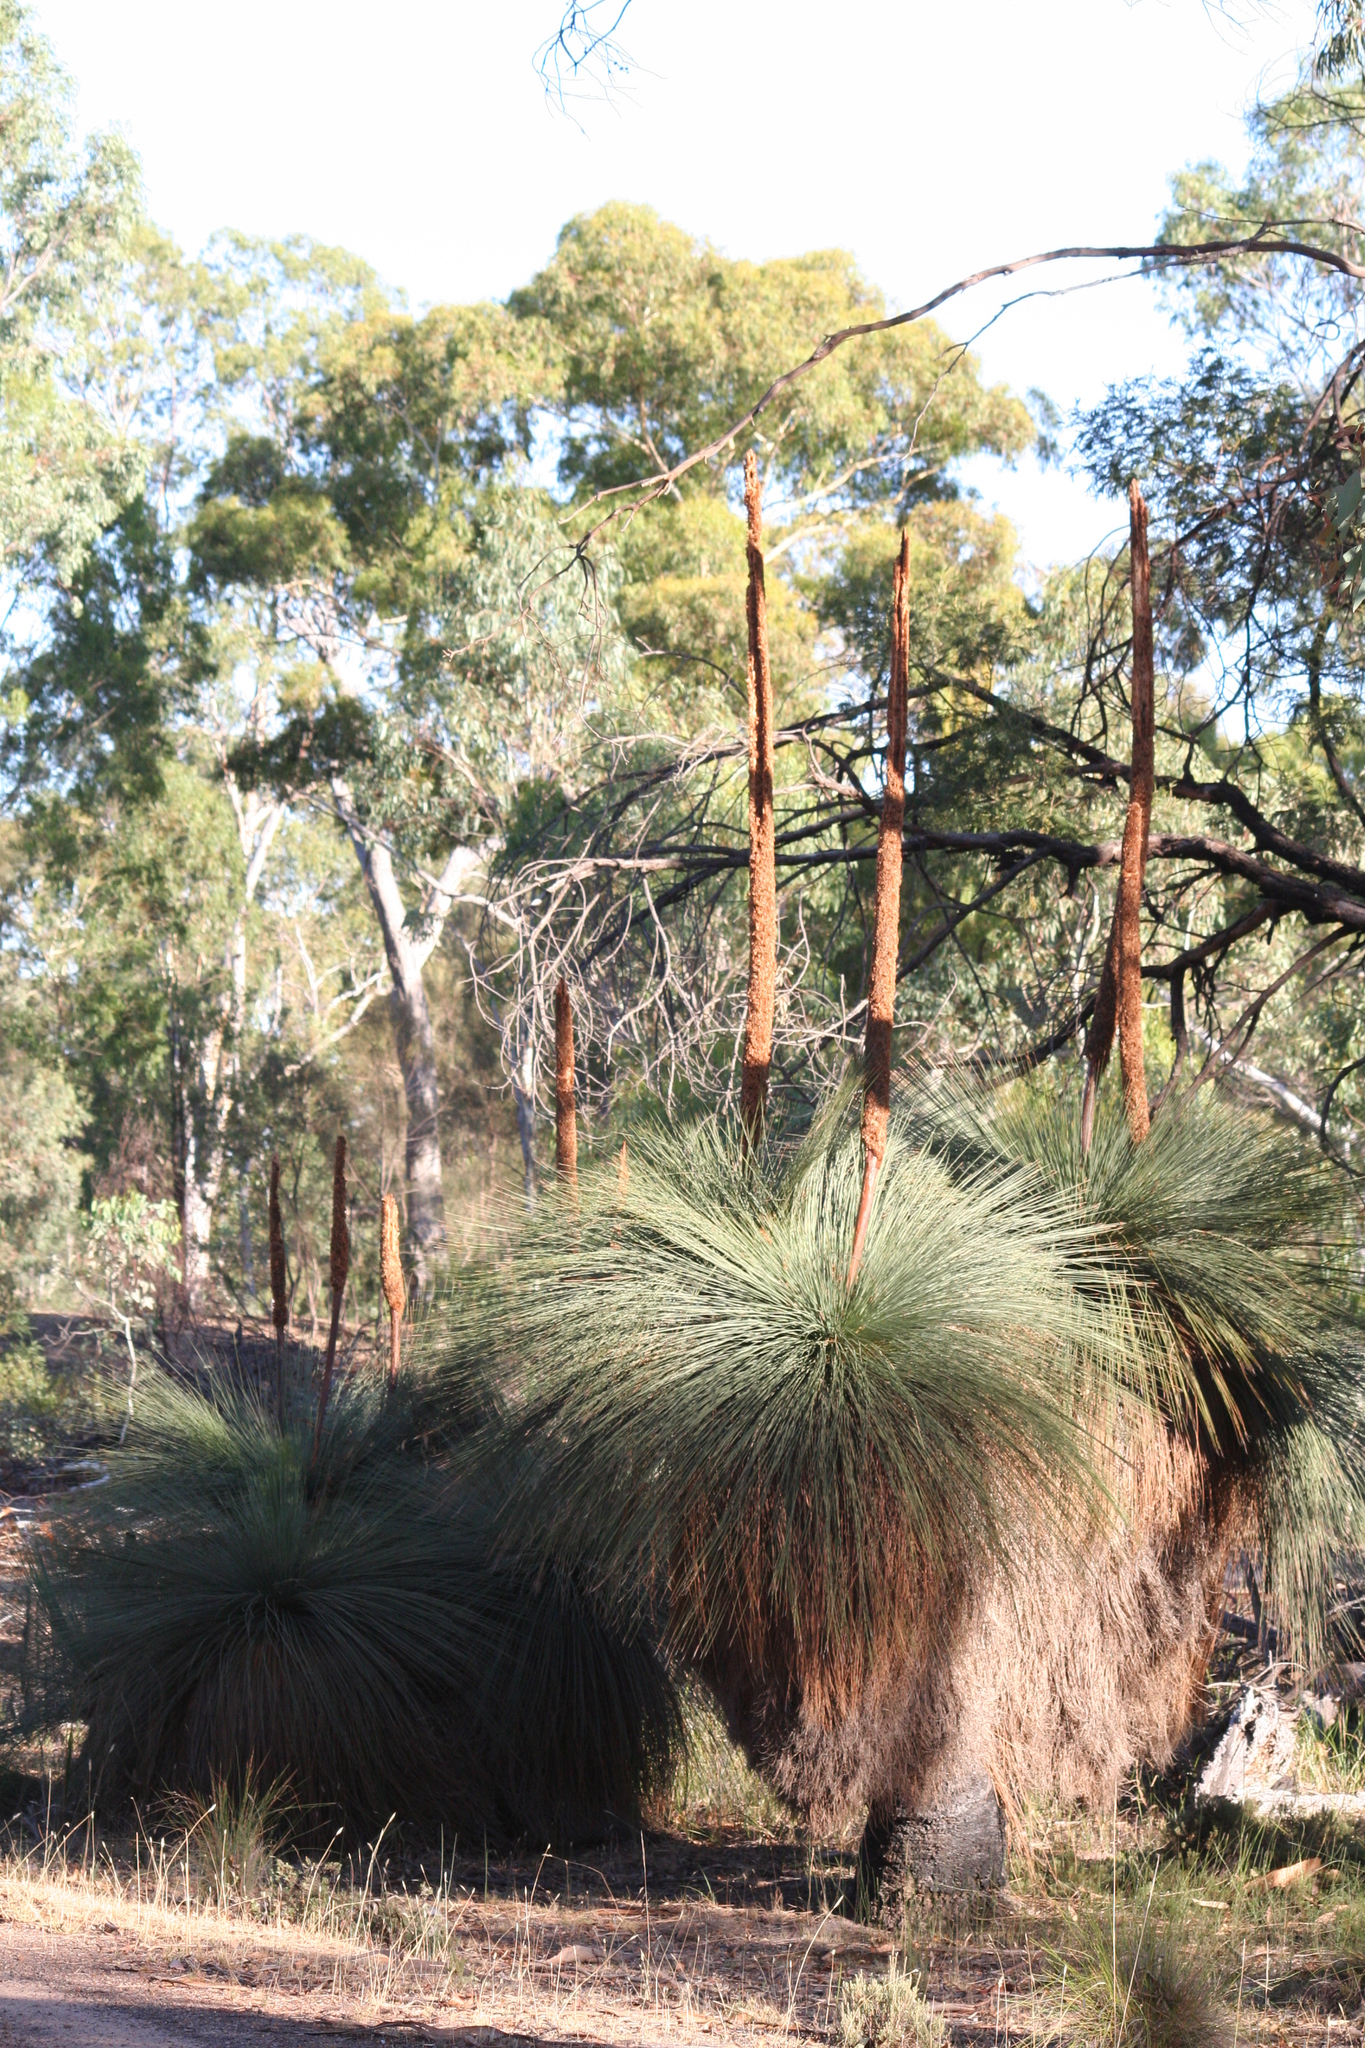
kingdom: Plantae
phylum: Tracheophyta
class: Liliopsida
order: Asparagales
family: Asphodelaceae
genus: Xanthorrhoea
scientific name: Xanthorrhoea australis
